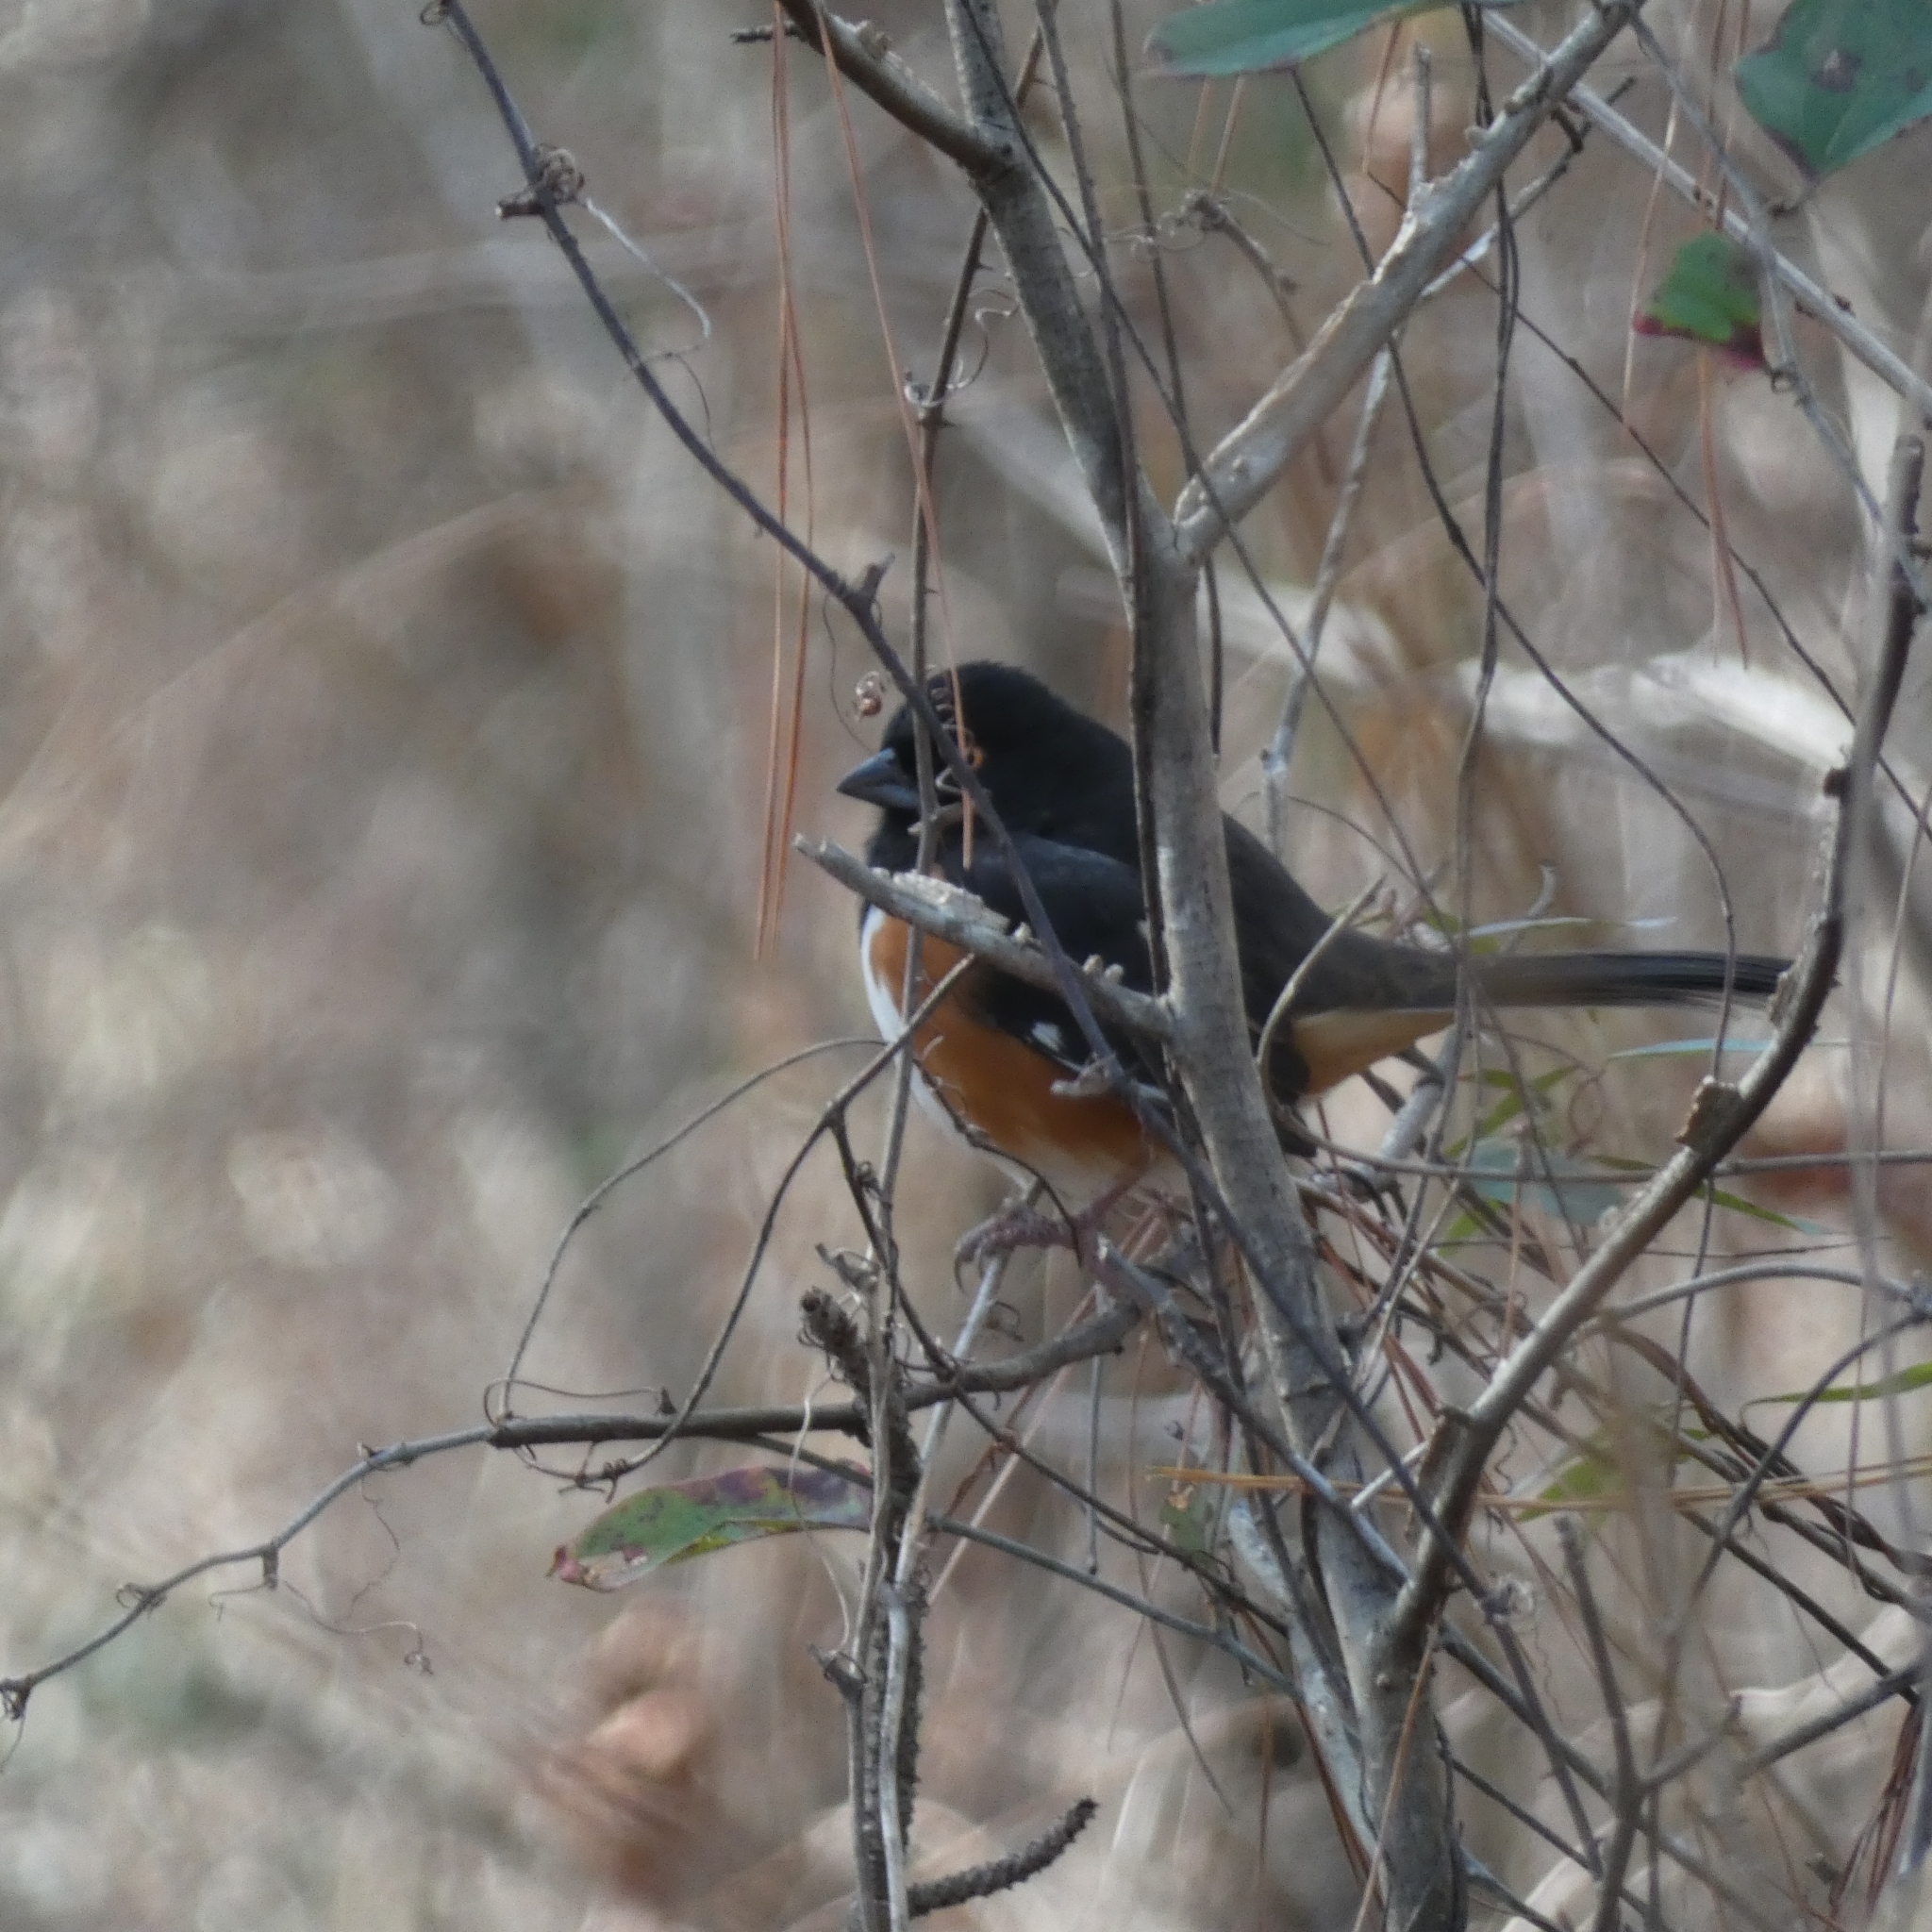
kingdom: Animalia
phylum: Chordata
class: Aves
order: Passeriformes
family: Passerellidae
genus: Pipilo
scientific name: Pipilo erythrophthalmus
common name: Eastern towhee
